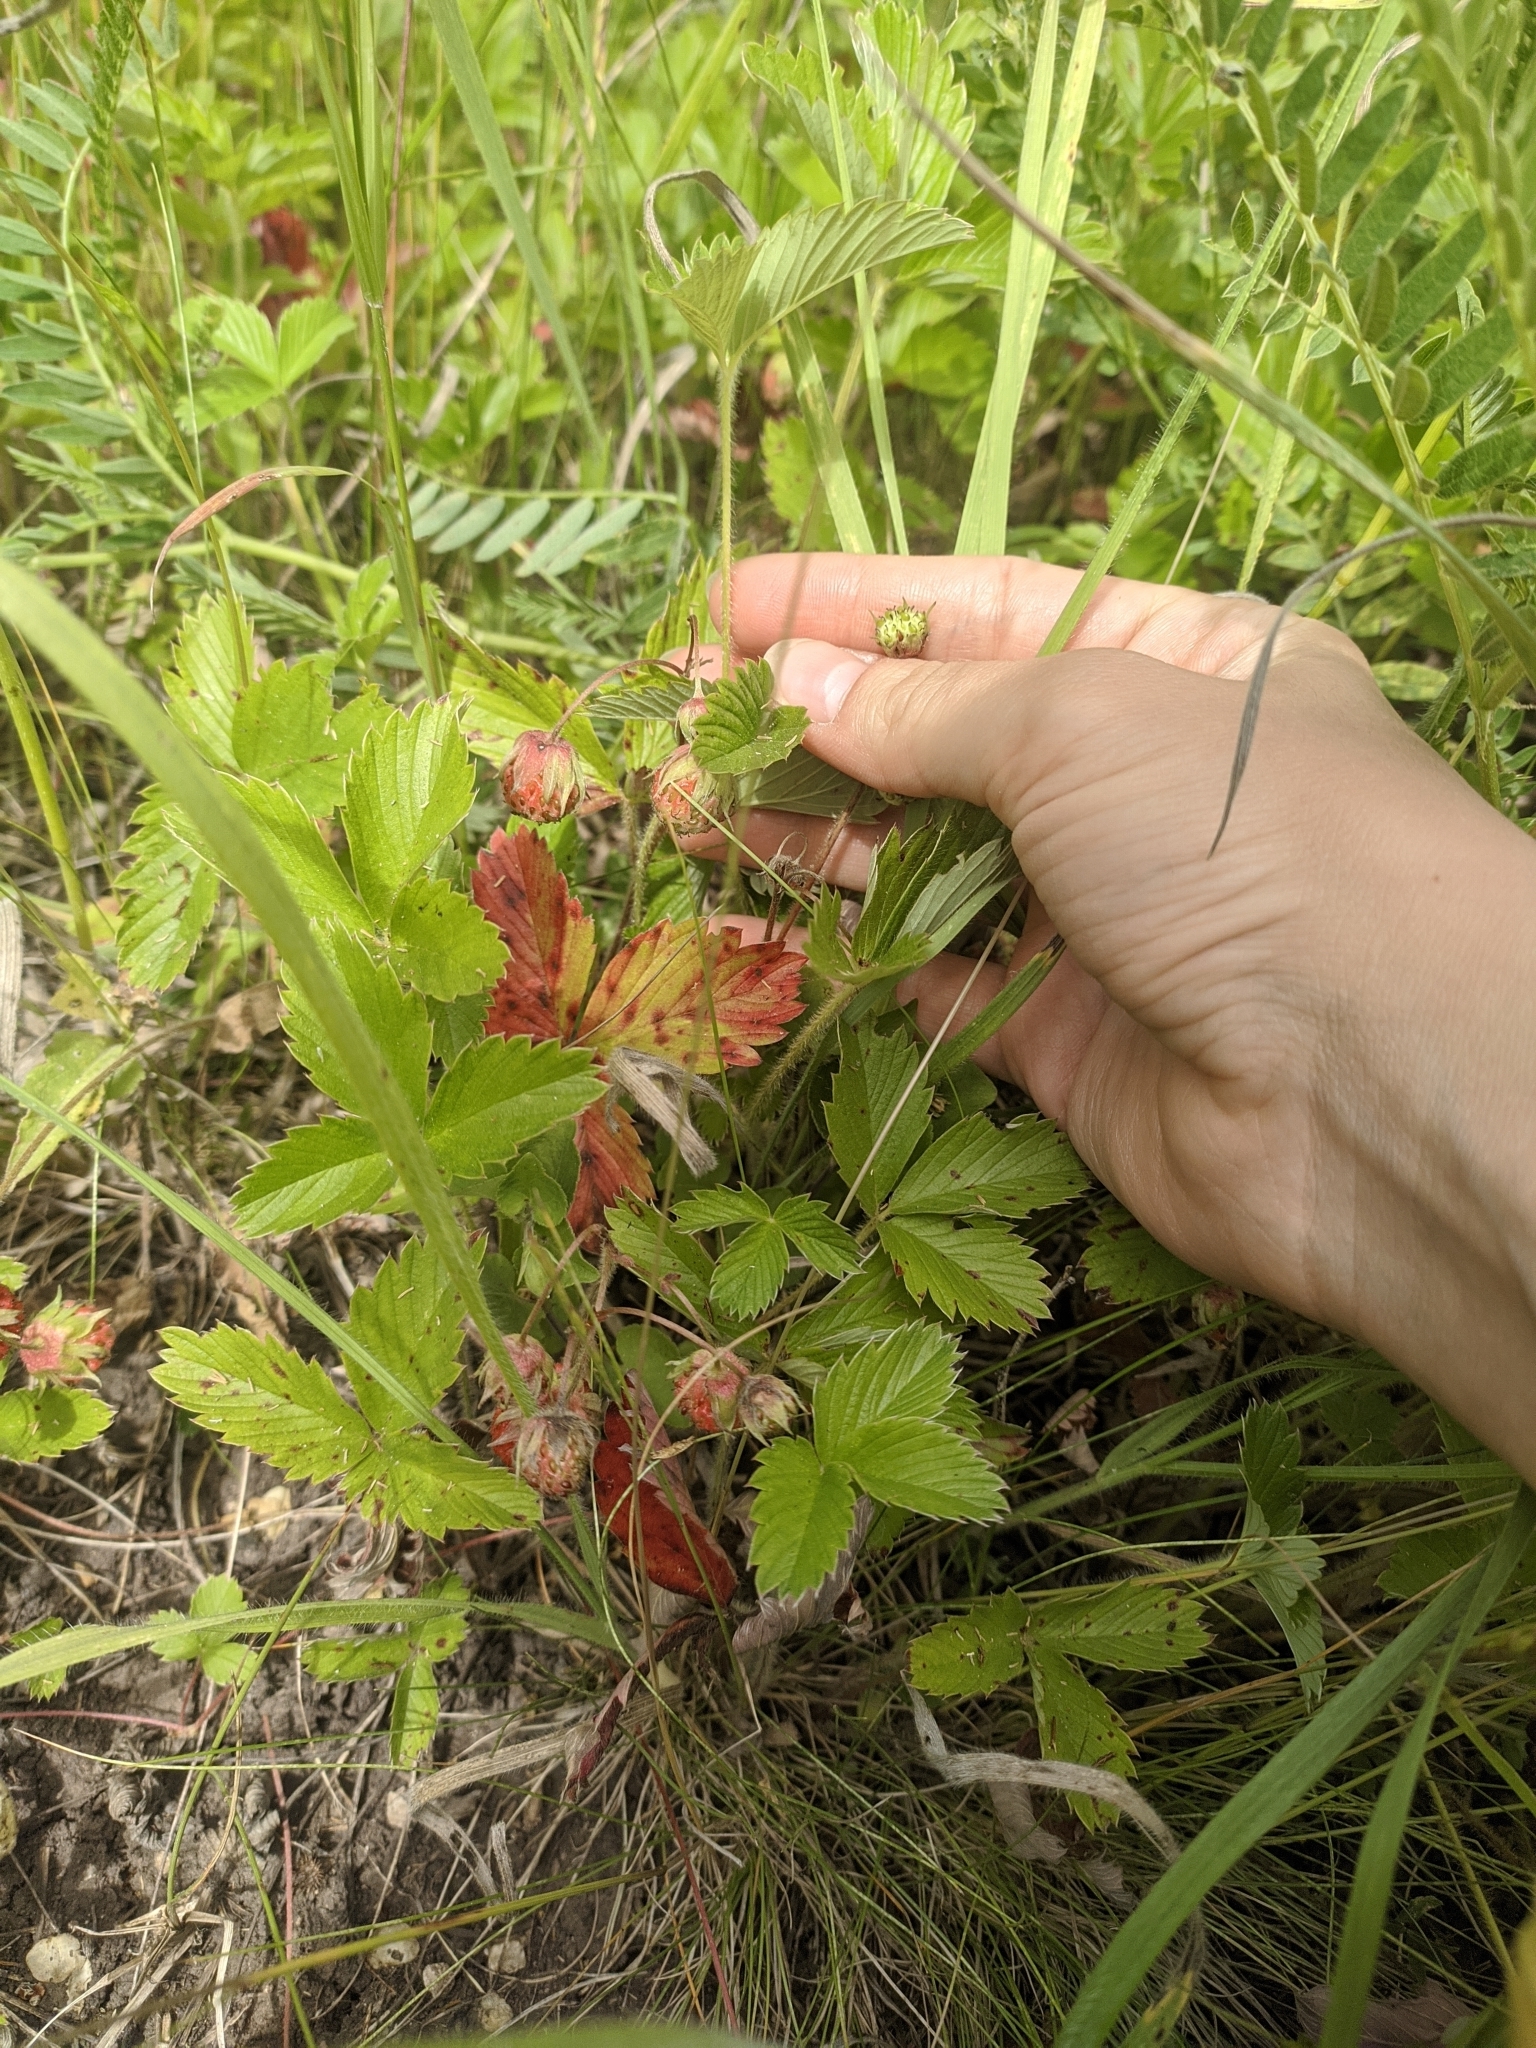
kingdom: Plantae
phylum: Tracheophyta
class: Magnoliopsida
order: Rosales
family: Rosaceae
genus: Fragaria
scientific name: Fragaria viridis
